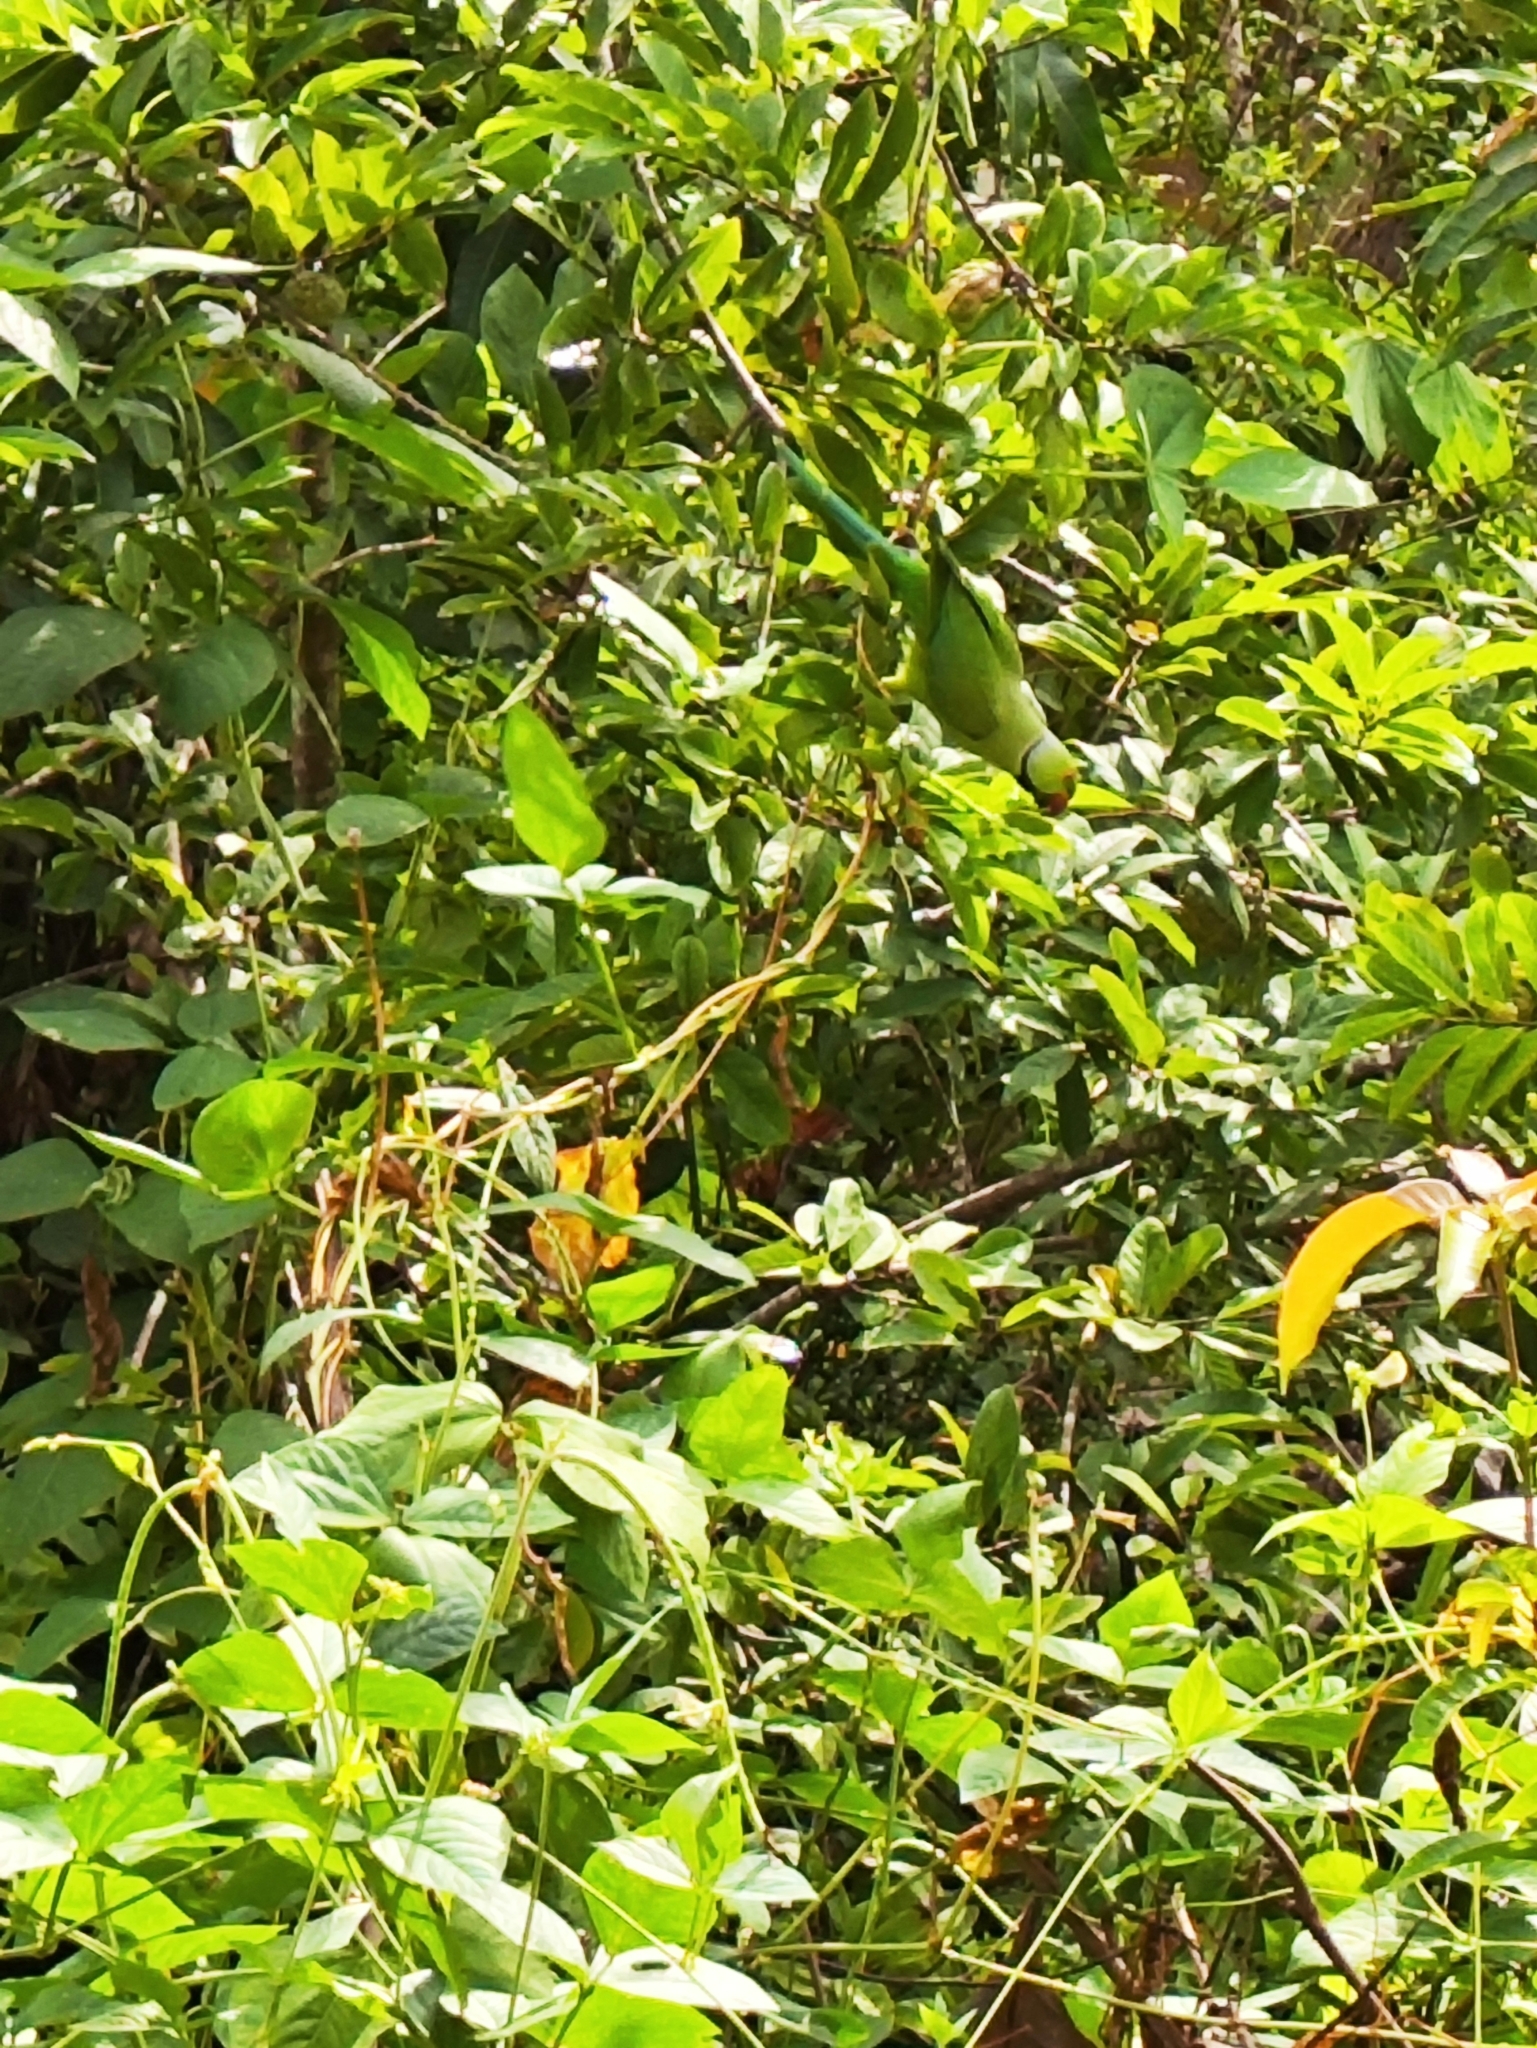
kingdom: Animalia
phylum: Chordata
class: Aves
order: Psittaciformes
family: Psittacidae
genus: Psittacula
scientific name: Psittacula krameri
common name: Rose-ringed parakeet
